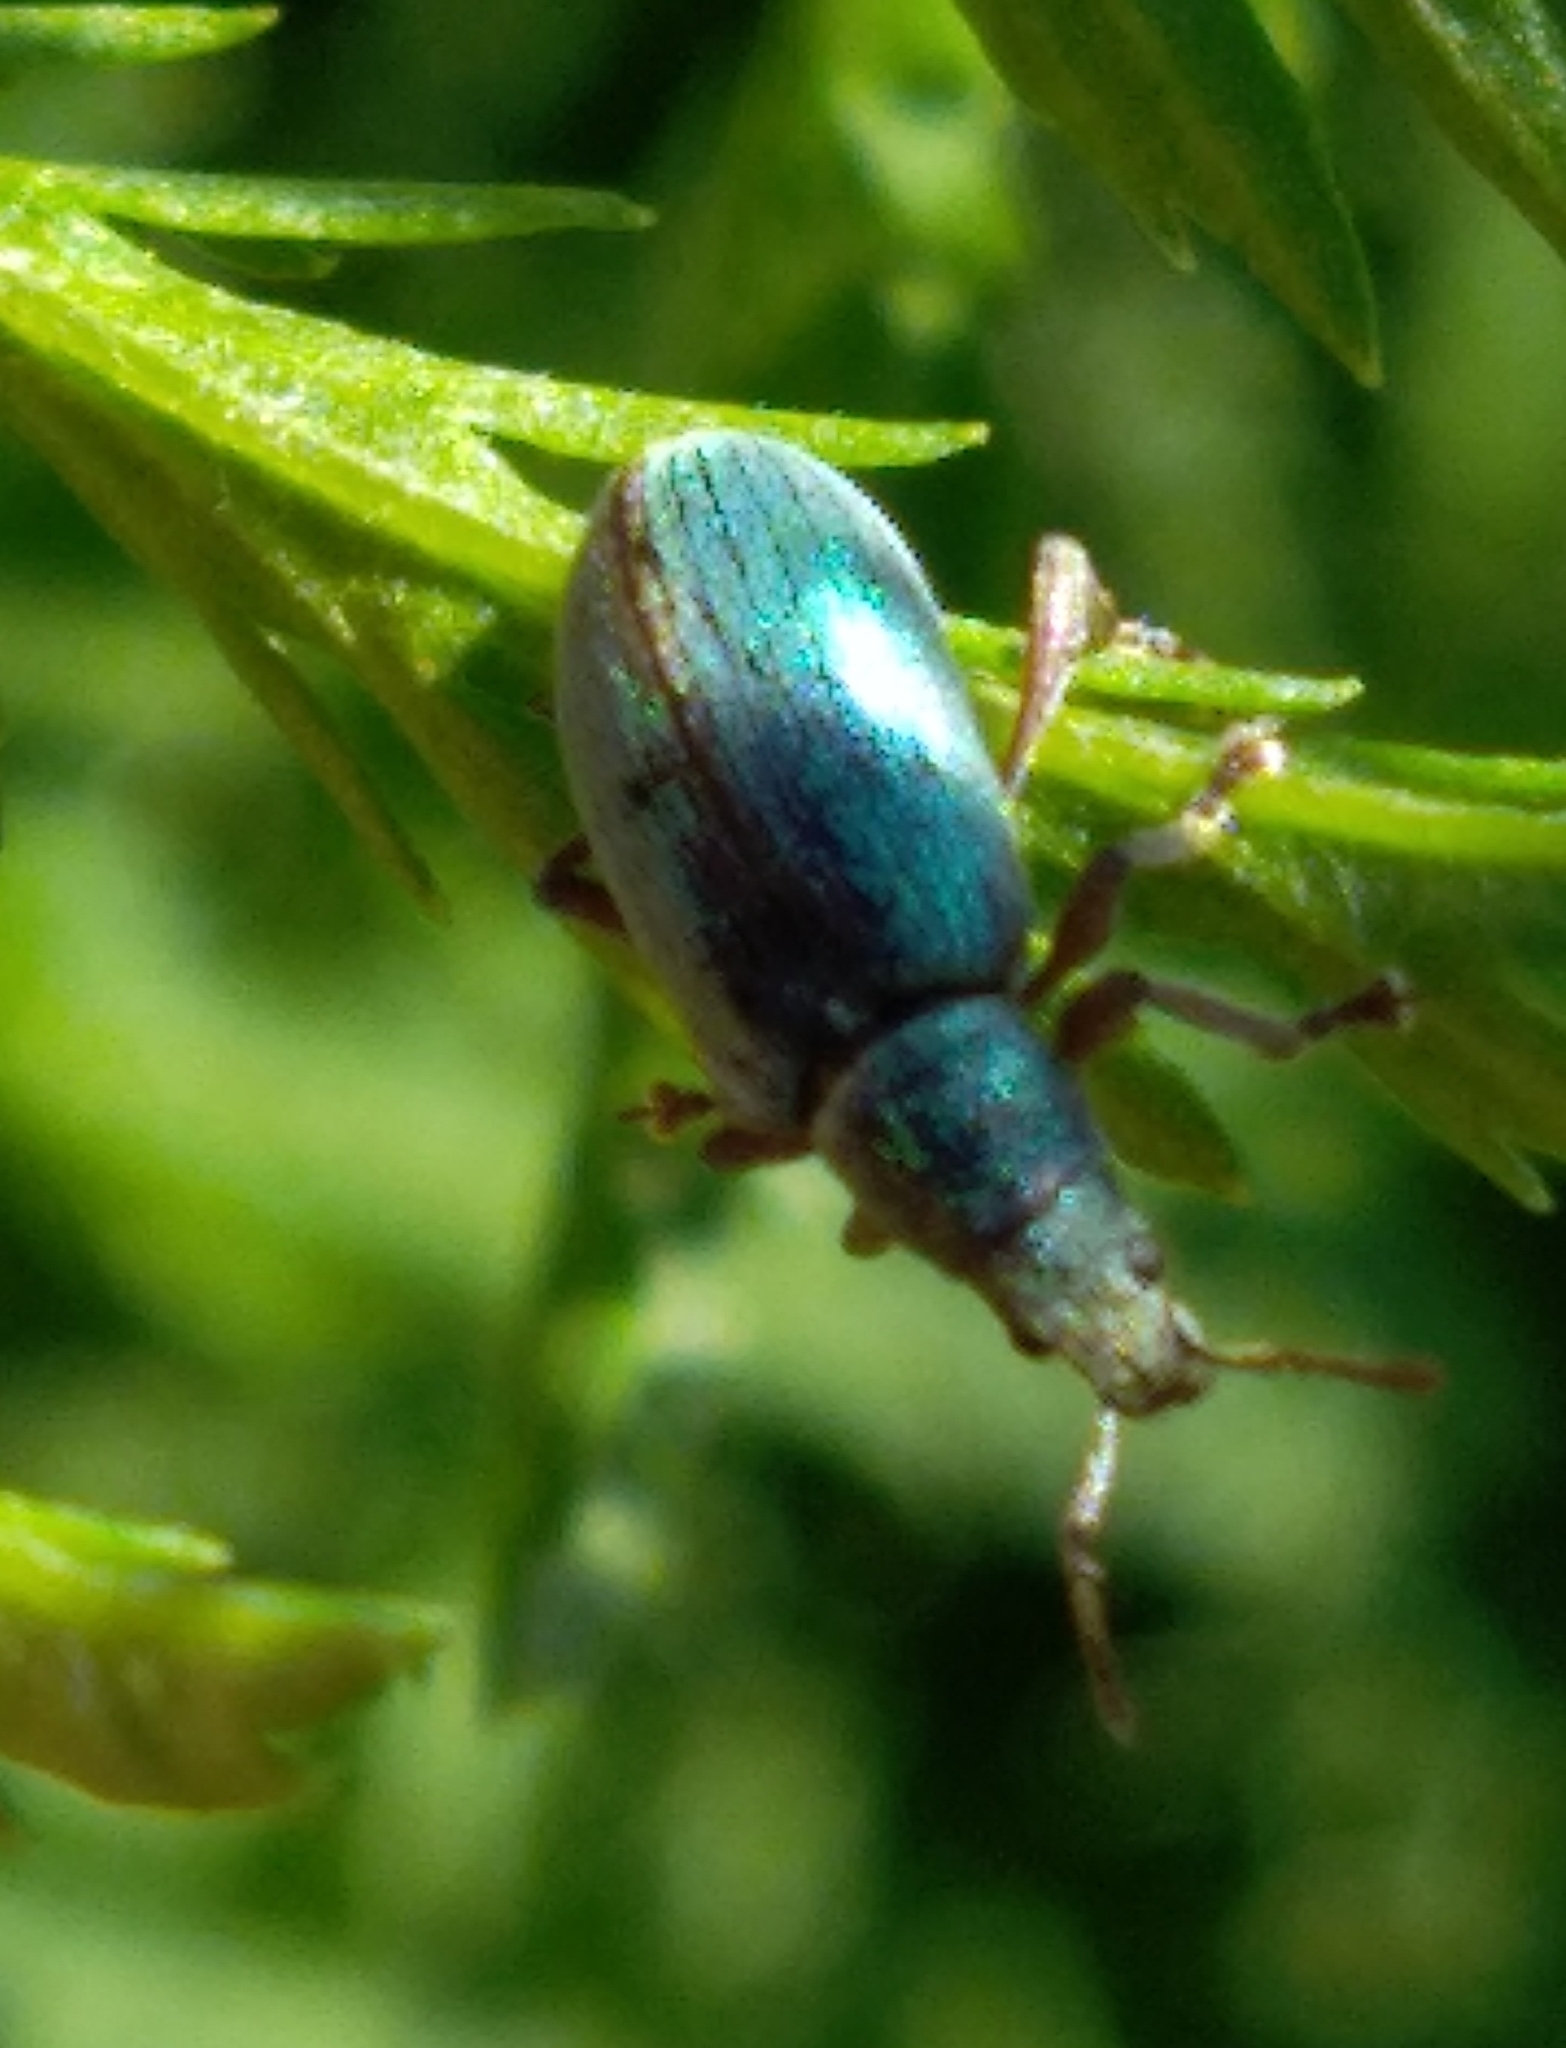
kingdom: Animalia
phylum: Arthropoda
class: Insecta
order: Coleoptera
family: Curculionidae
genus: Phyllobius
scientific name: Phyllobius pomaceus
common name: Green nettle weevil
